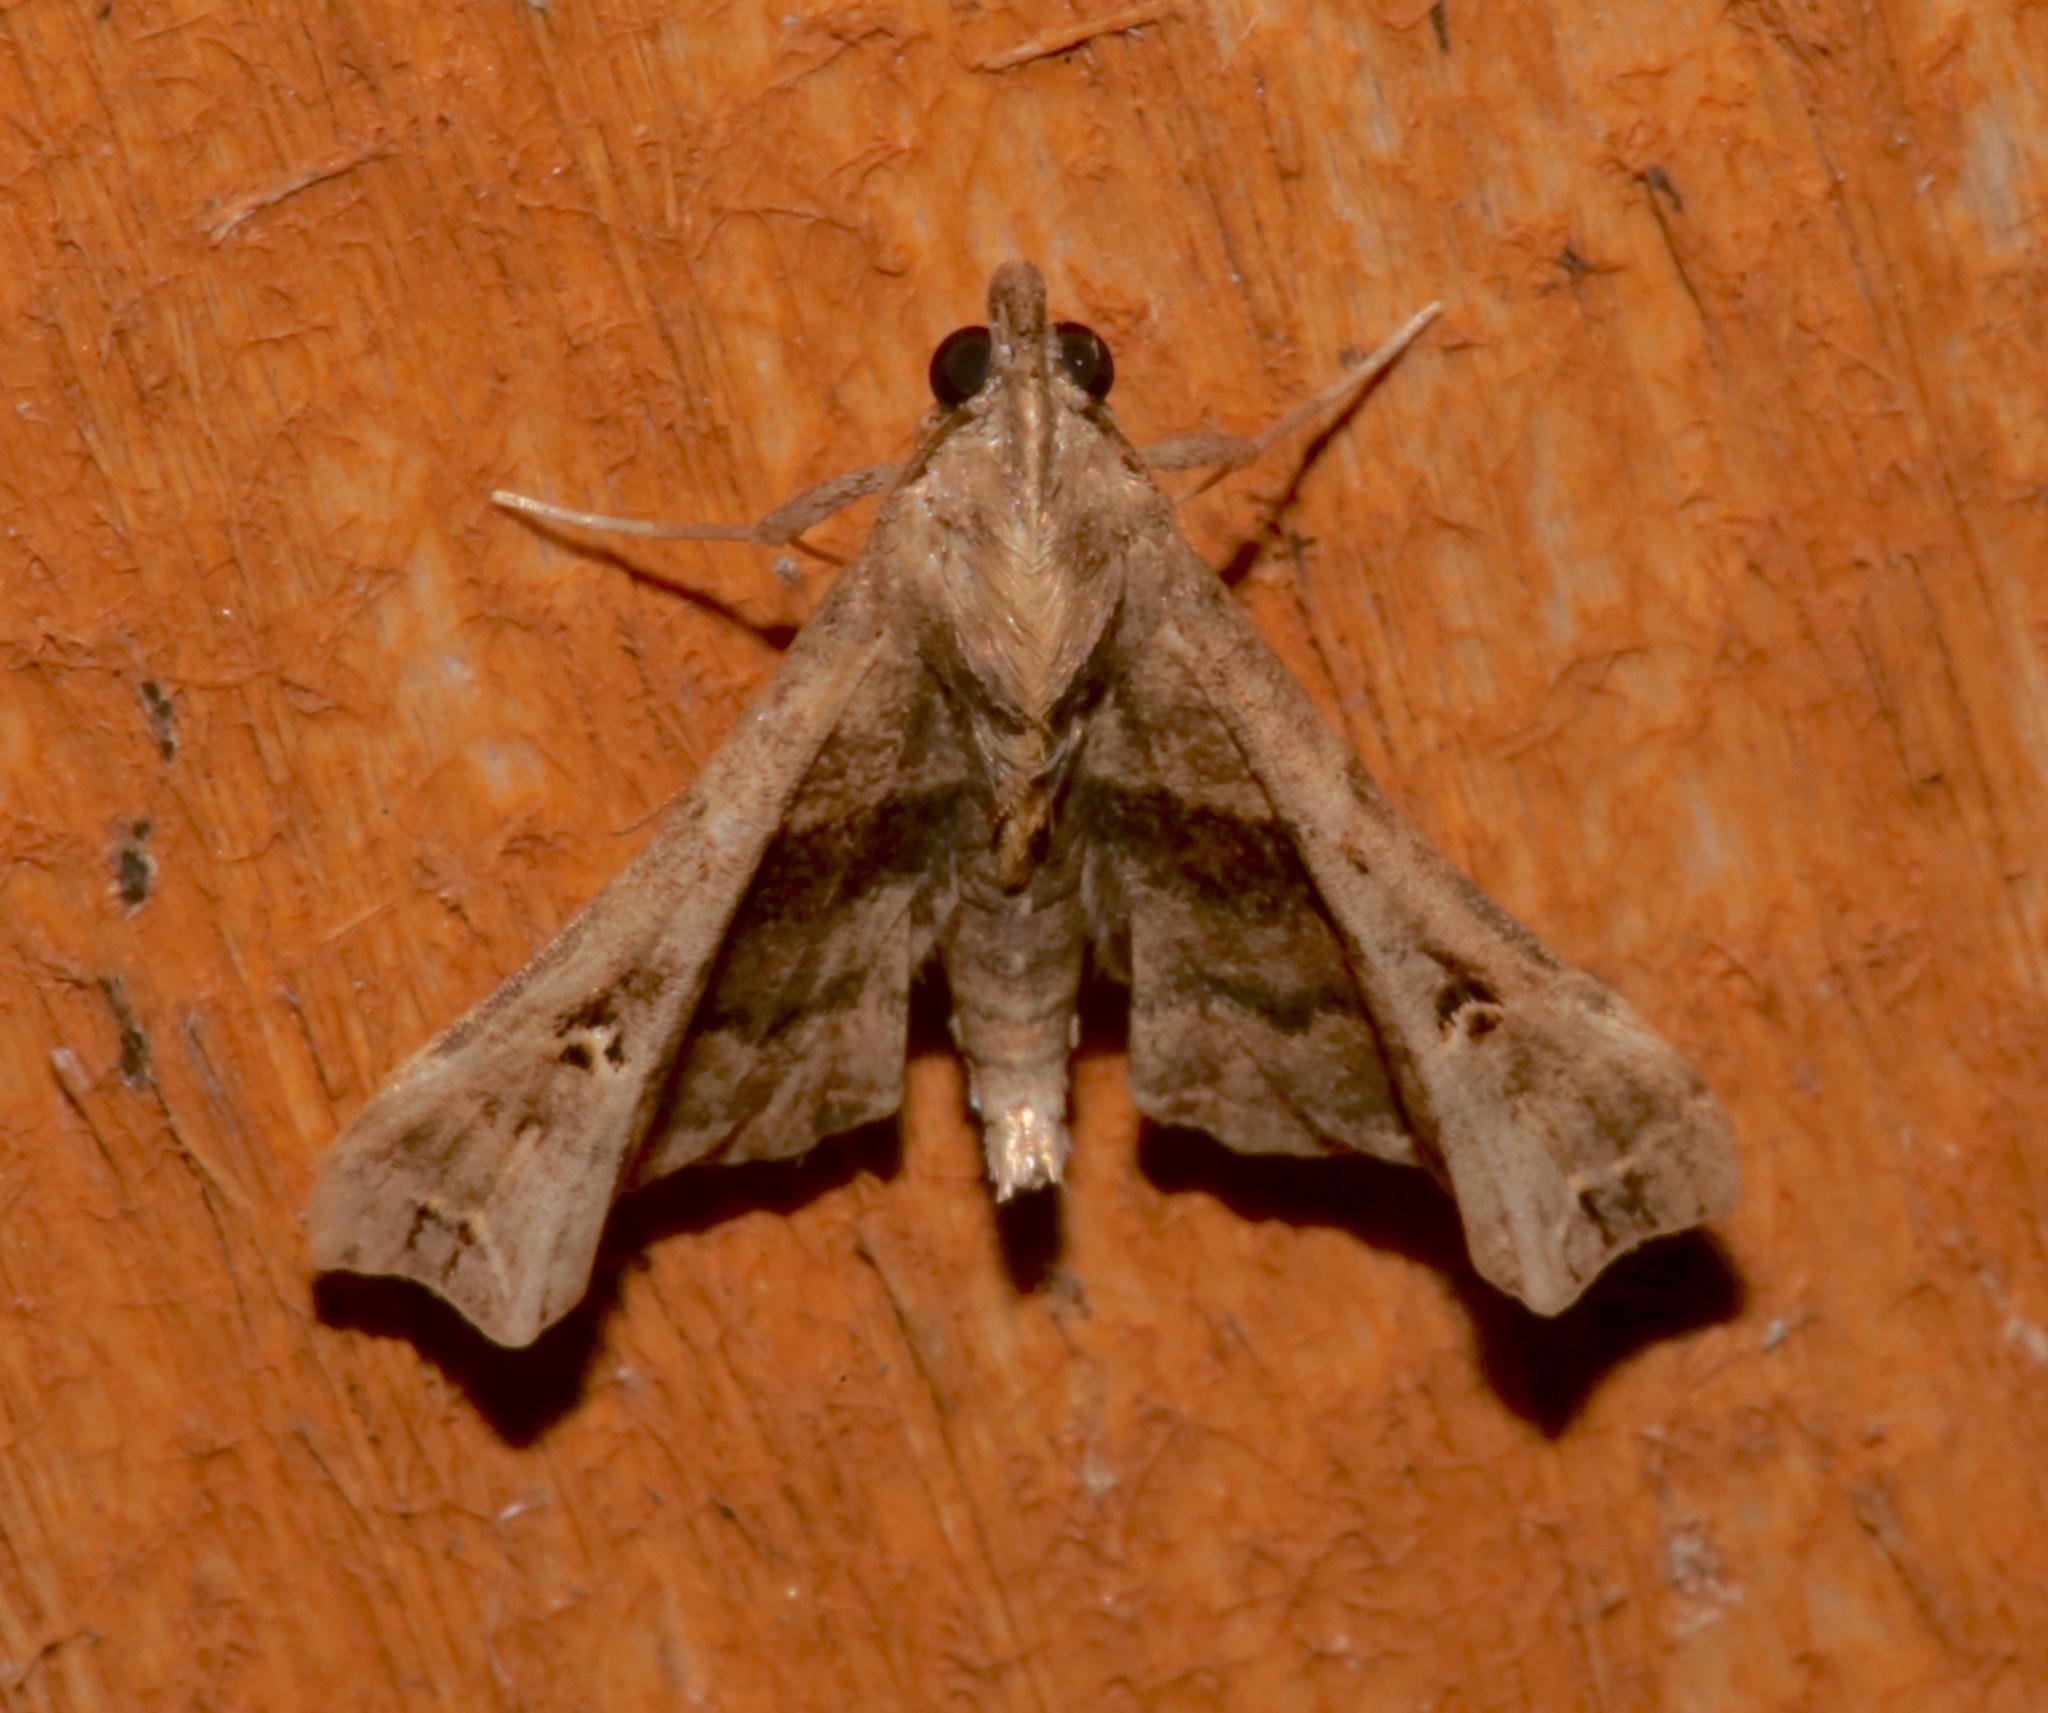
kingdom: Animalia
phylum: Arthropoda
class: Insecta
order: Lepidoptera
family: Erebidae
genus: Palthis
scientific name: Palthis asopialis
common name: Faint-spotted palthis moth
